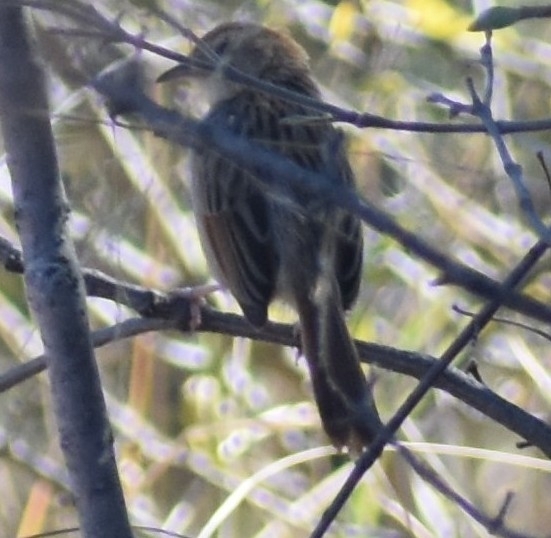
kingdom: Animalia
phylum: Chordata
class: Aves
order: Passeriformes
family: Cisticolidae
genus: Cisticola
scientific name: Cisticola lais
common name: Wailing cisticola
